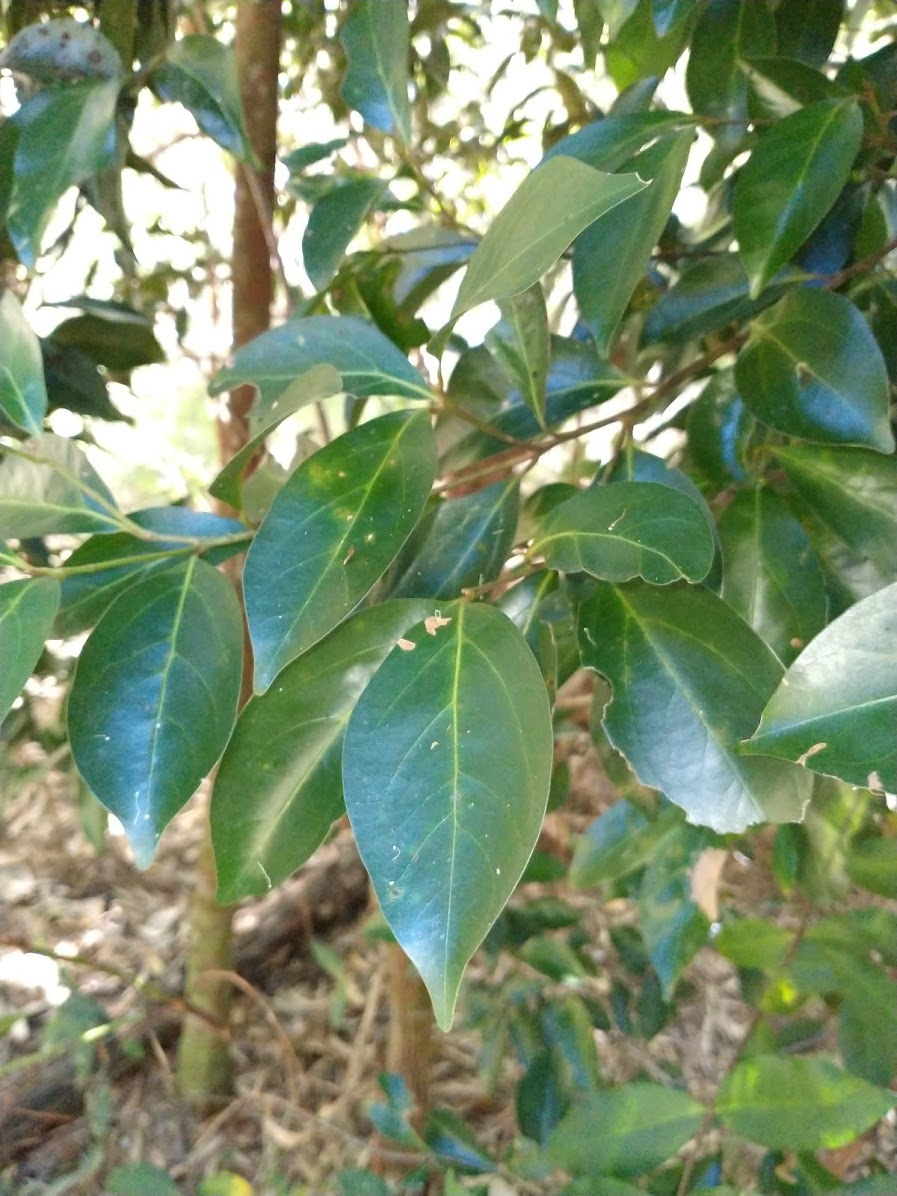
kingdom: Plantae
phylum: Tracheophyta
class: Magnoliopsida
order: Laurales
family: Lauraceae
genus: Endiandra
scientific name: Endiandra discolor
